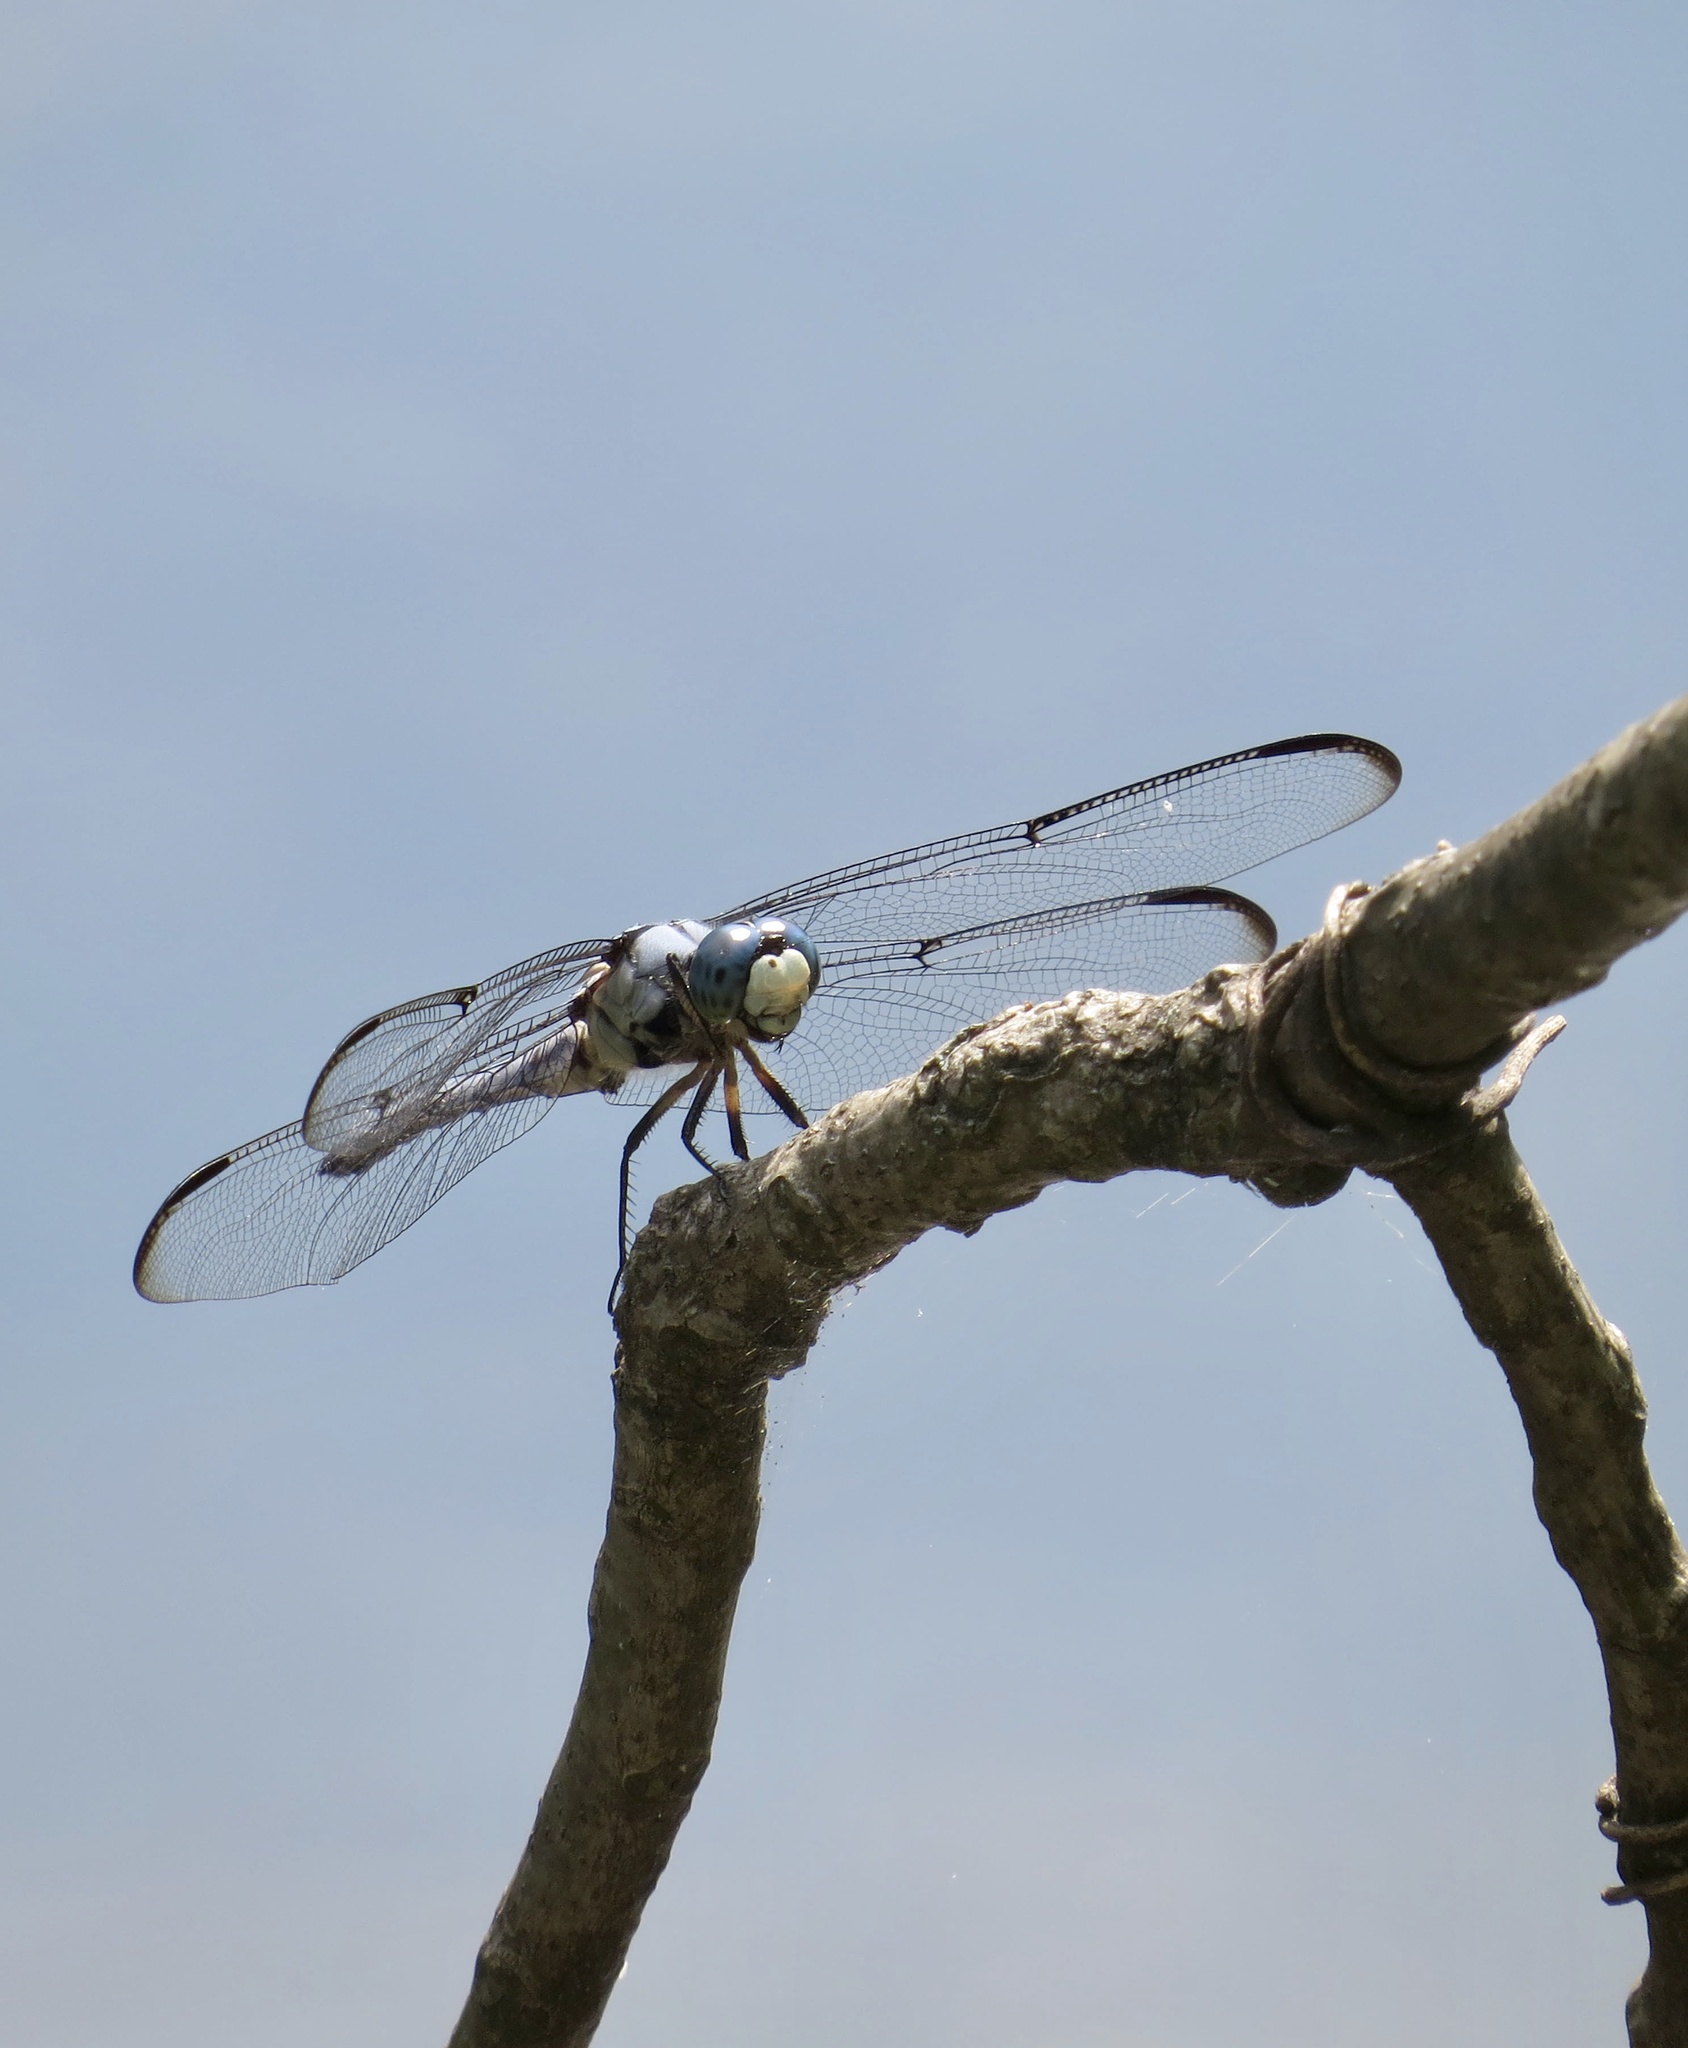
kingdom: Animalia
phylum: Arthropoda
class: Insecta
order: Odonata
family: Libellulidae
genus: Libellula
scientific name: Libellula vibrans
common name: Great blue skimmer
